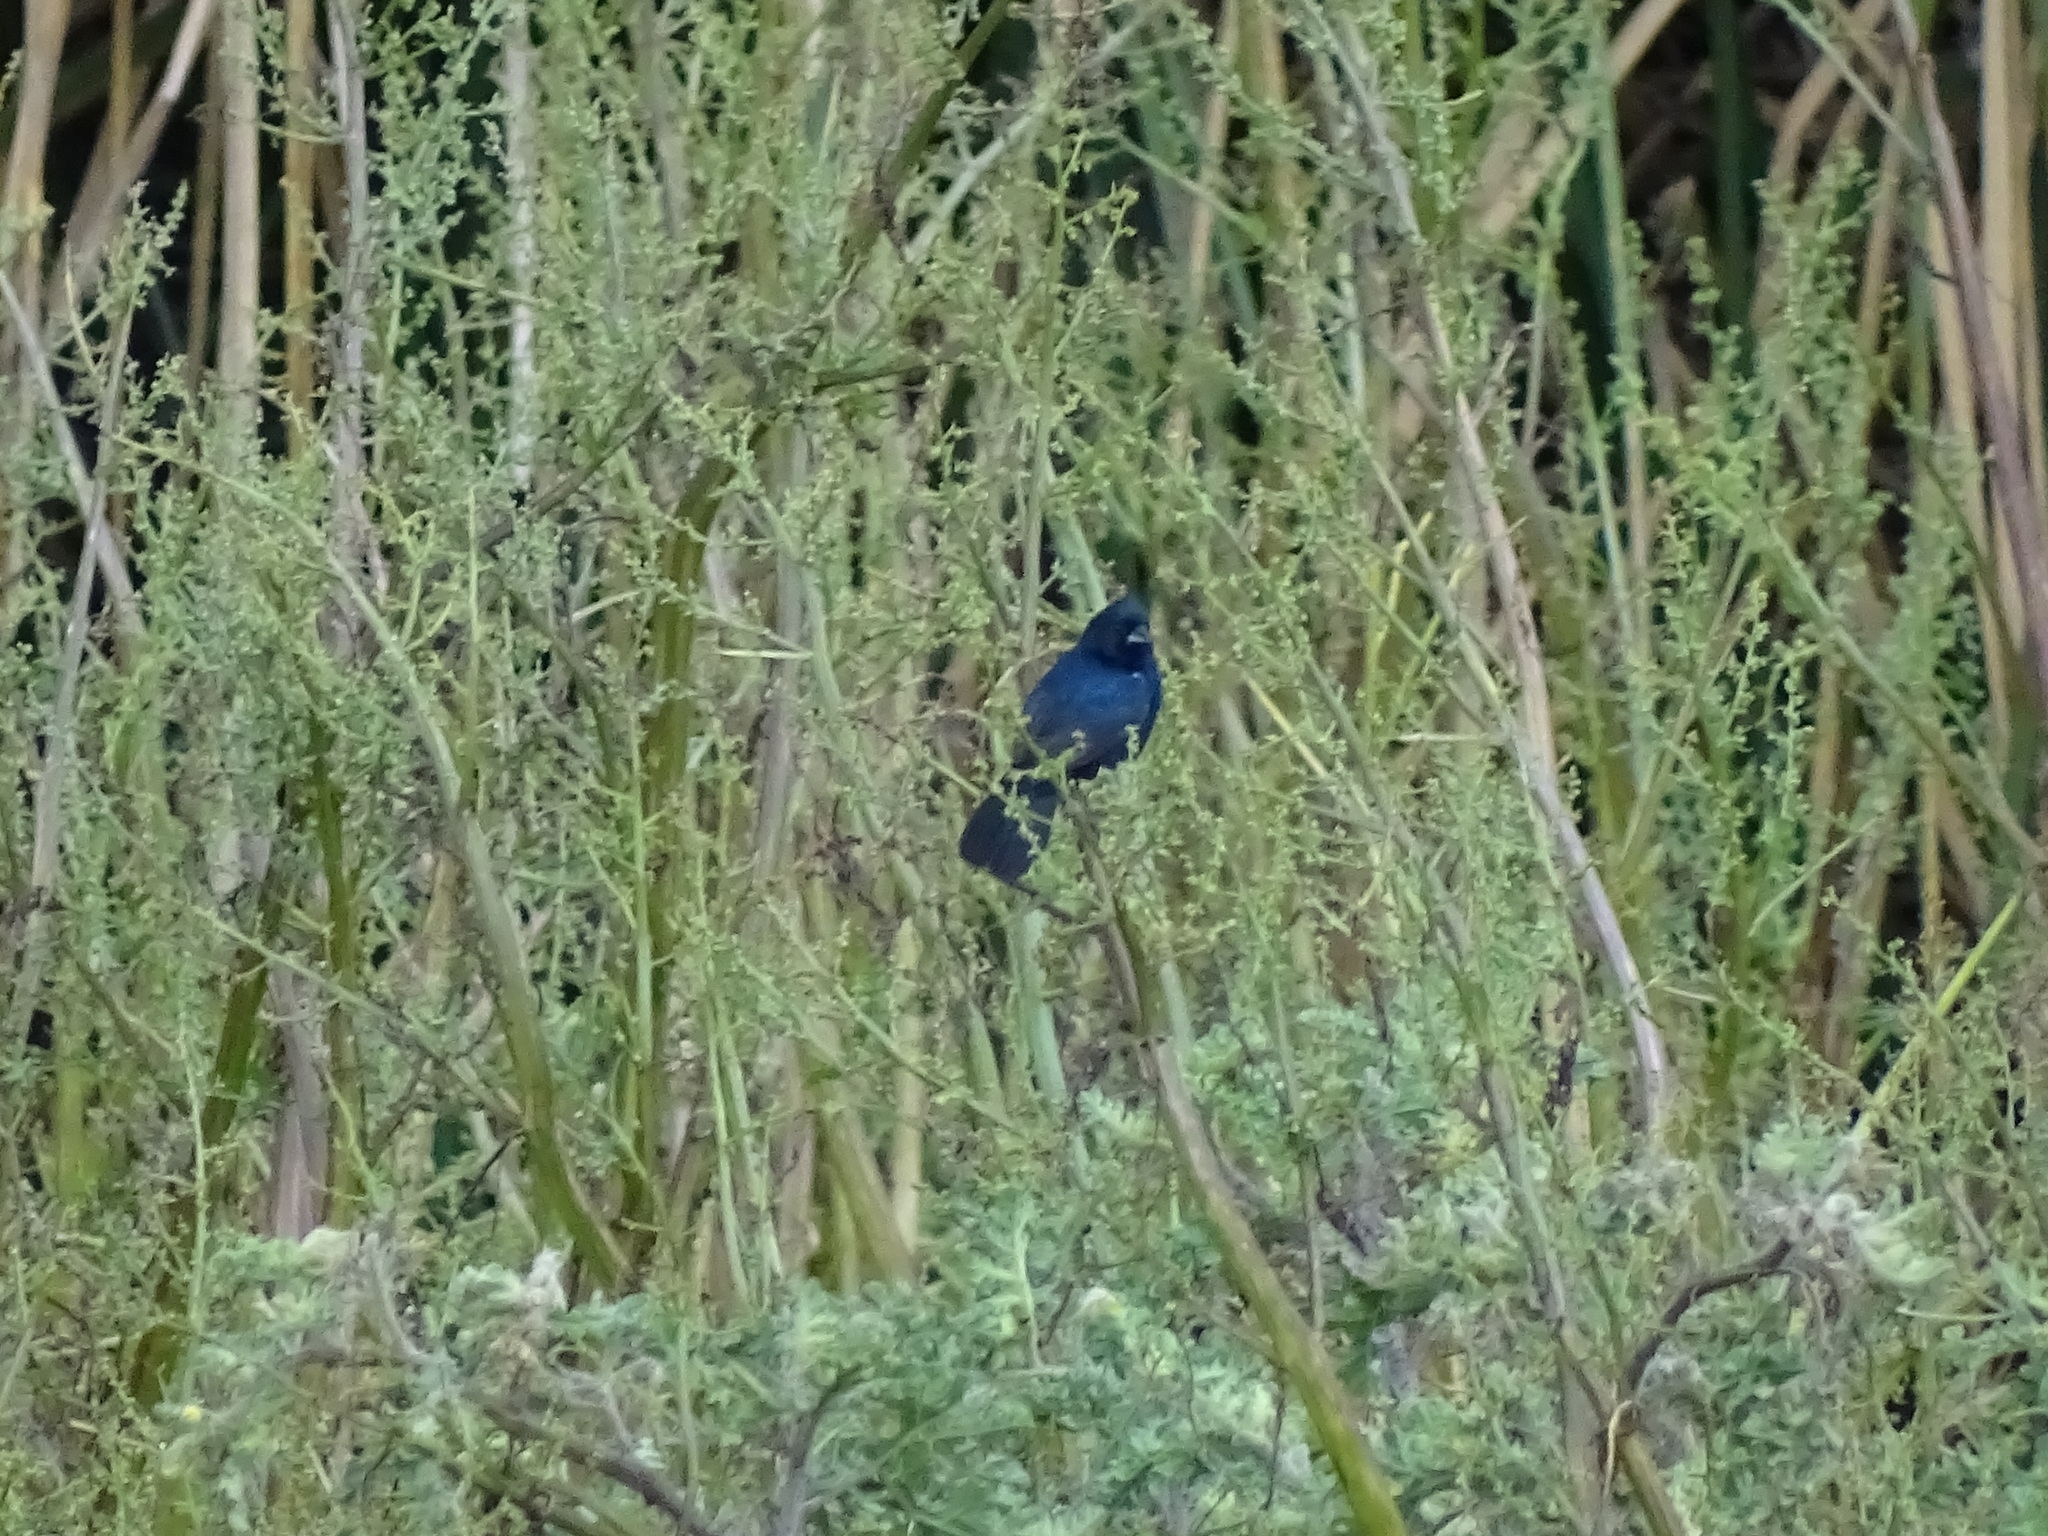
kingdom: Animalia
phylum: Chordata
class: Aves
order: Passeriformes
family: Thraupidae
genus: Volatinia
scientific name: Volatinia jacarina
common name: Blue-black grassquit
